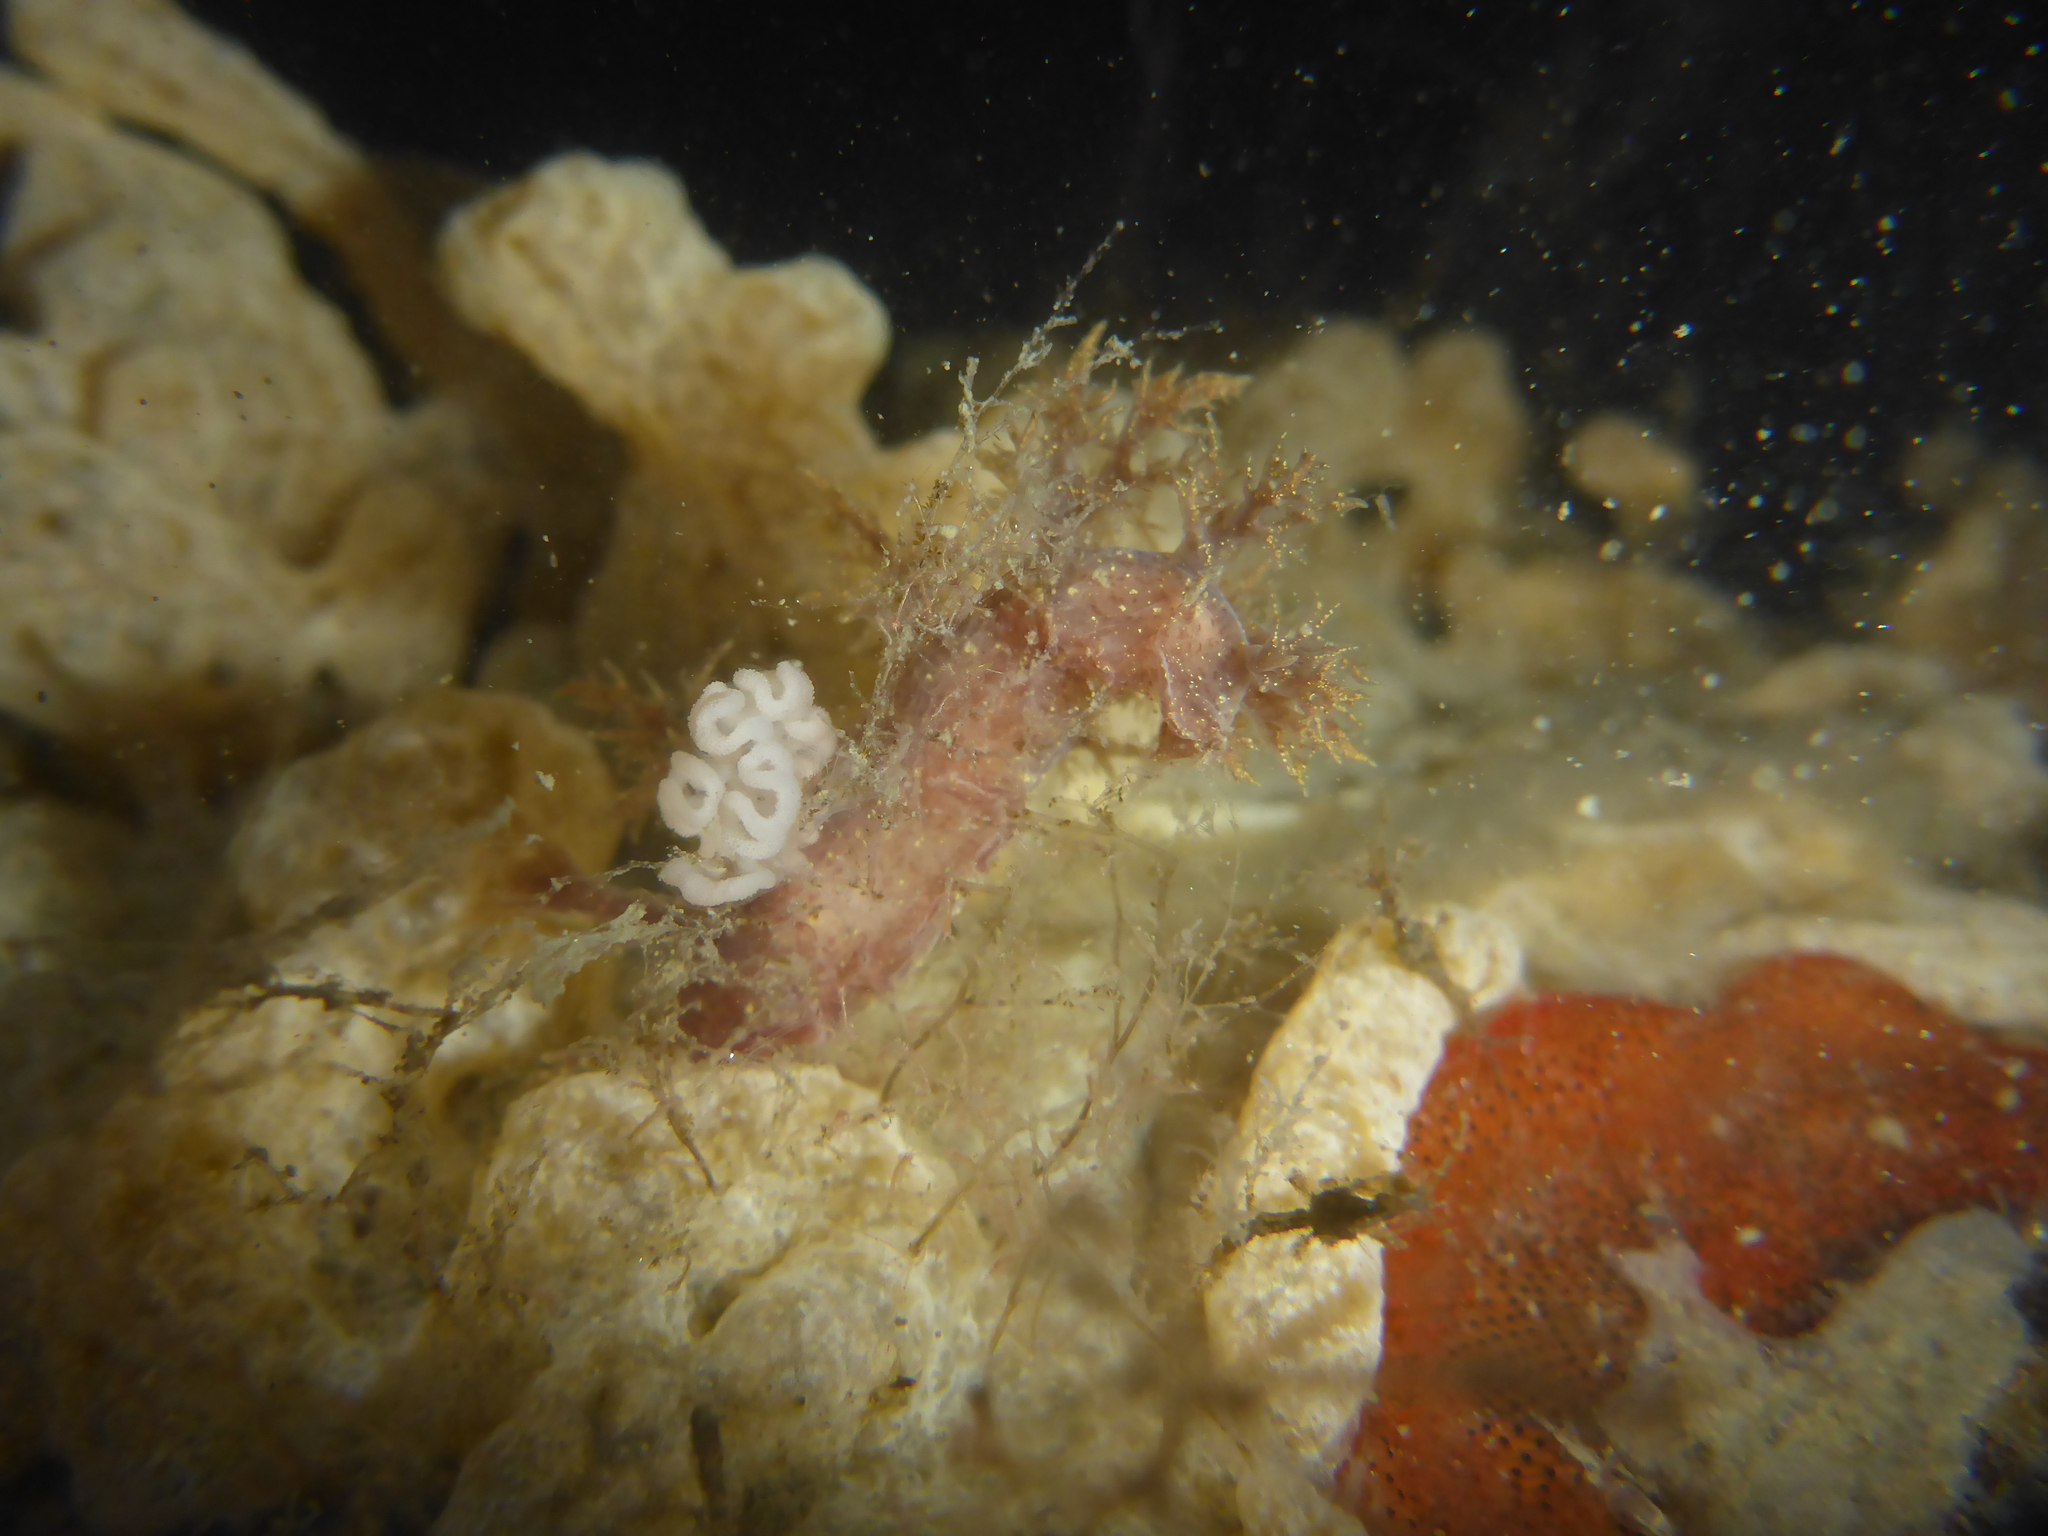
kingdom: Animalia
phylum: Mollusca
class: Gastropoda
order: Nudibranchia
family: Dendronotidae
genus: Dendronotus
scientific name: Dendronotus venustus
